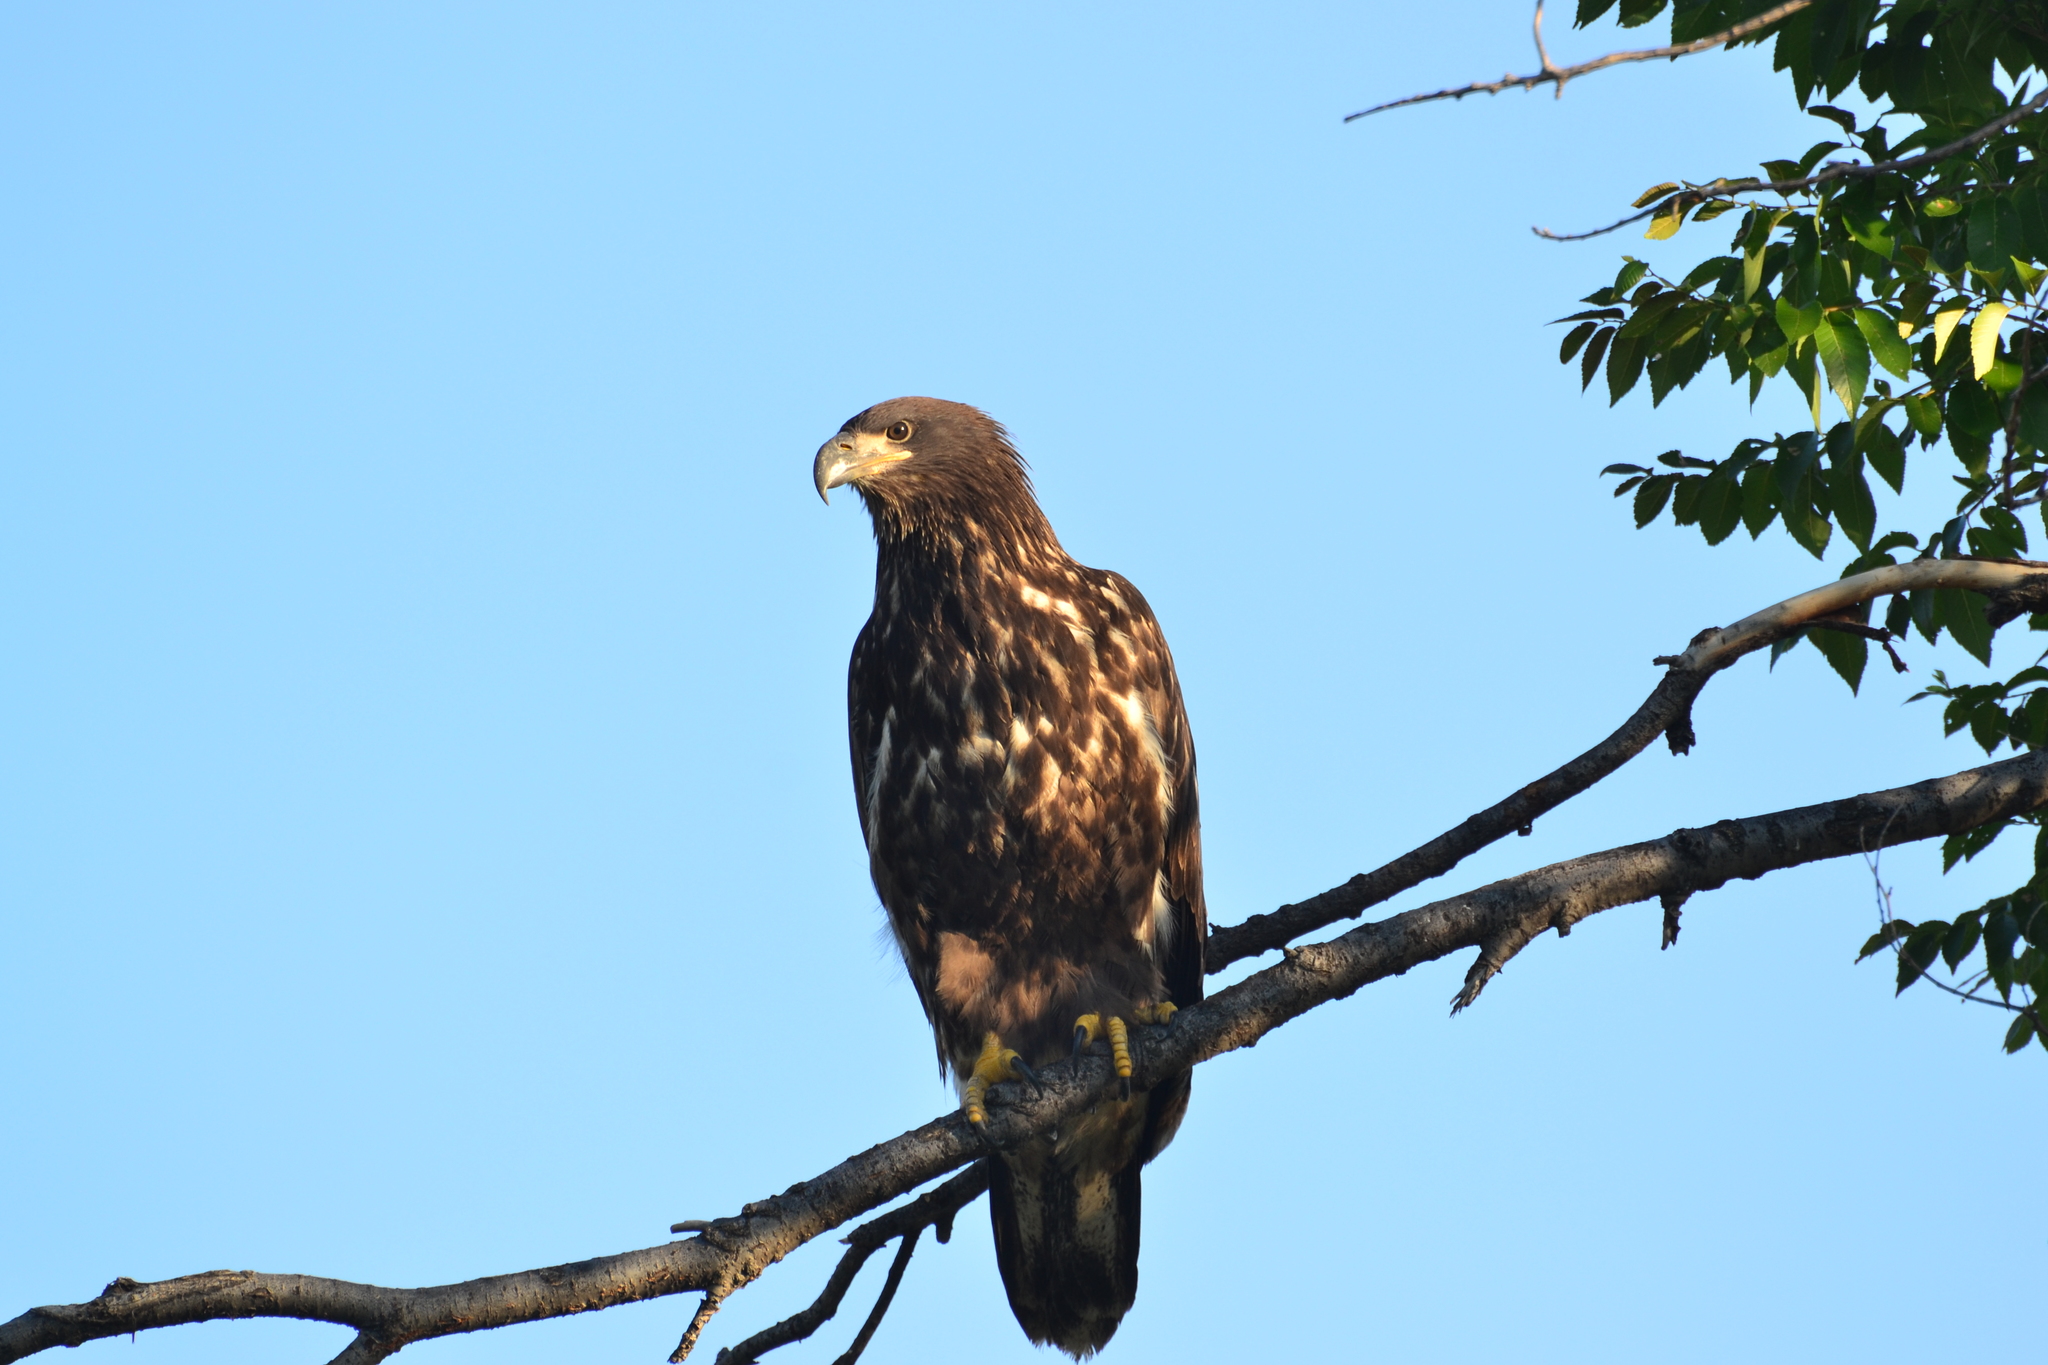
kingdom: Animalia
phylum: Chordata
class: Aves
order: Accipitriformes
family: Accipitridae
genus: Haliaeetus
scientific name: Haliaeetus leucocephalus
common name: Bald eagle
